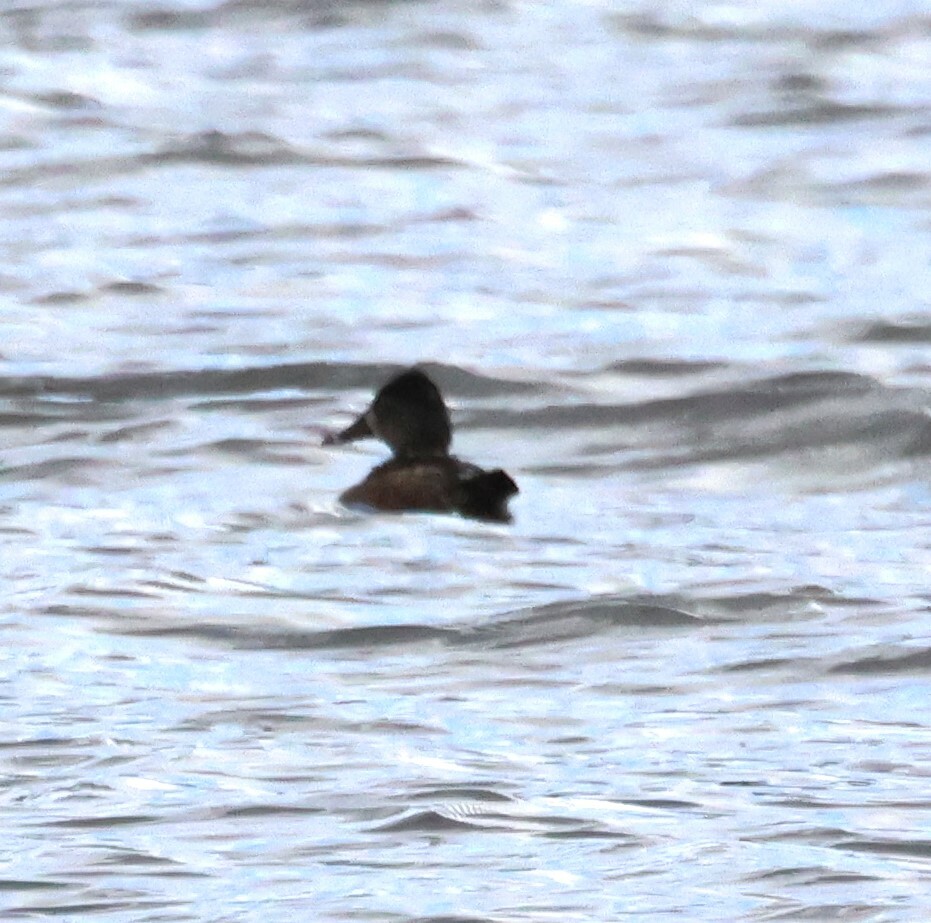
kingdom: Animalia
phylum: Chordata
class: Aves
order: Anseriformes
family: Anatidae
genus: Aythya
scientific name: Aythya collaris
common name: Ring-necked duck
